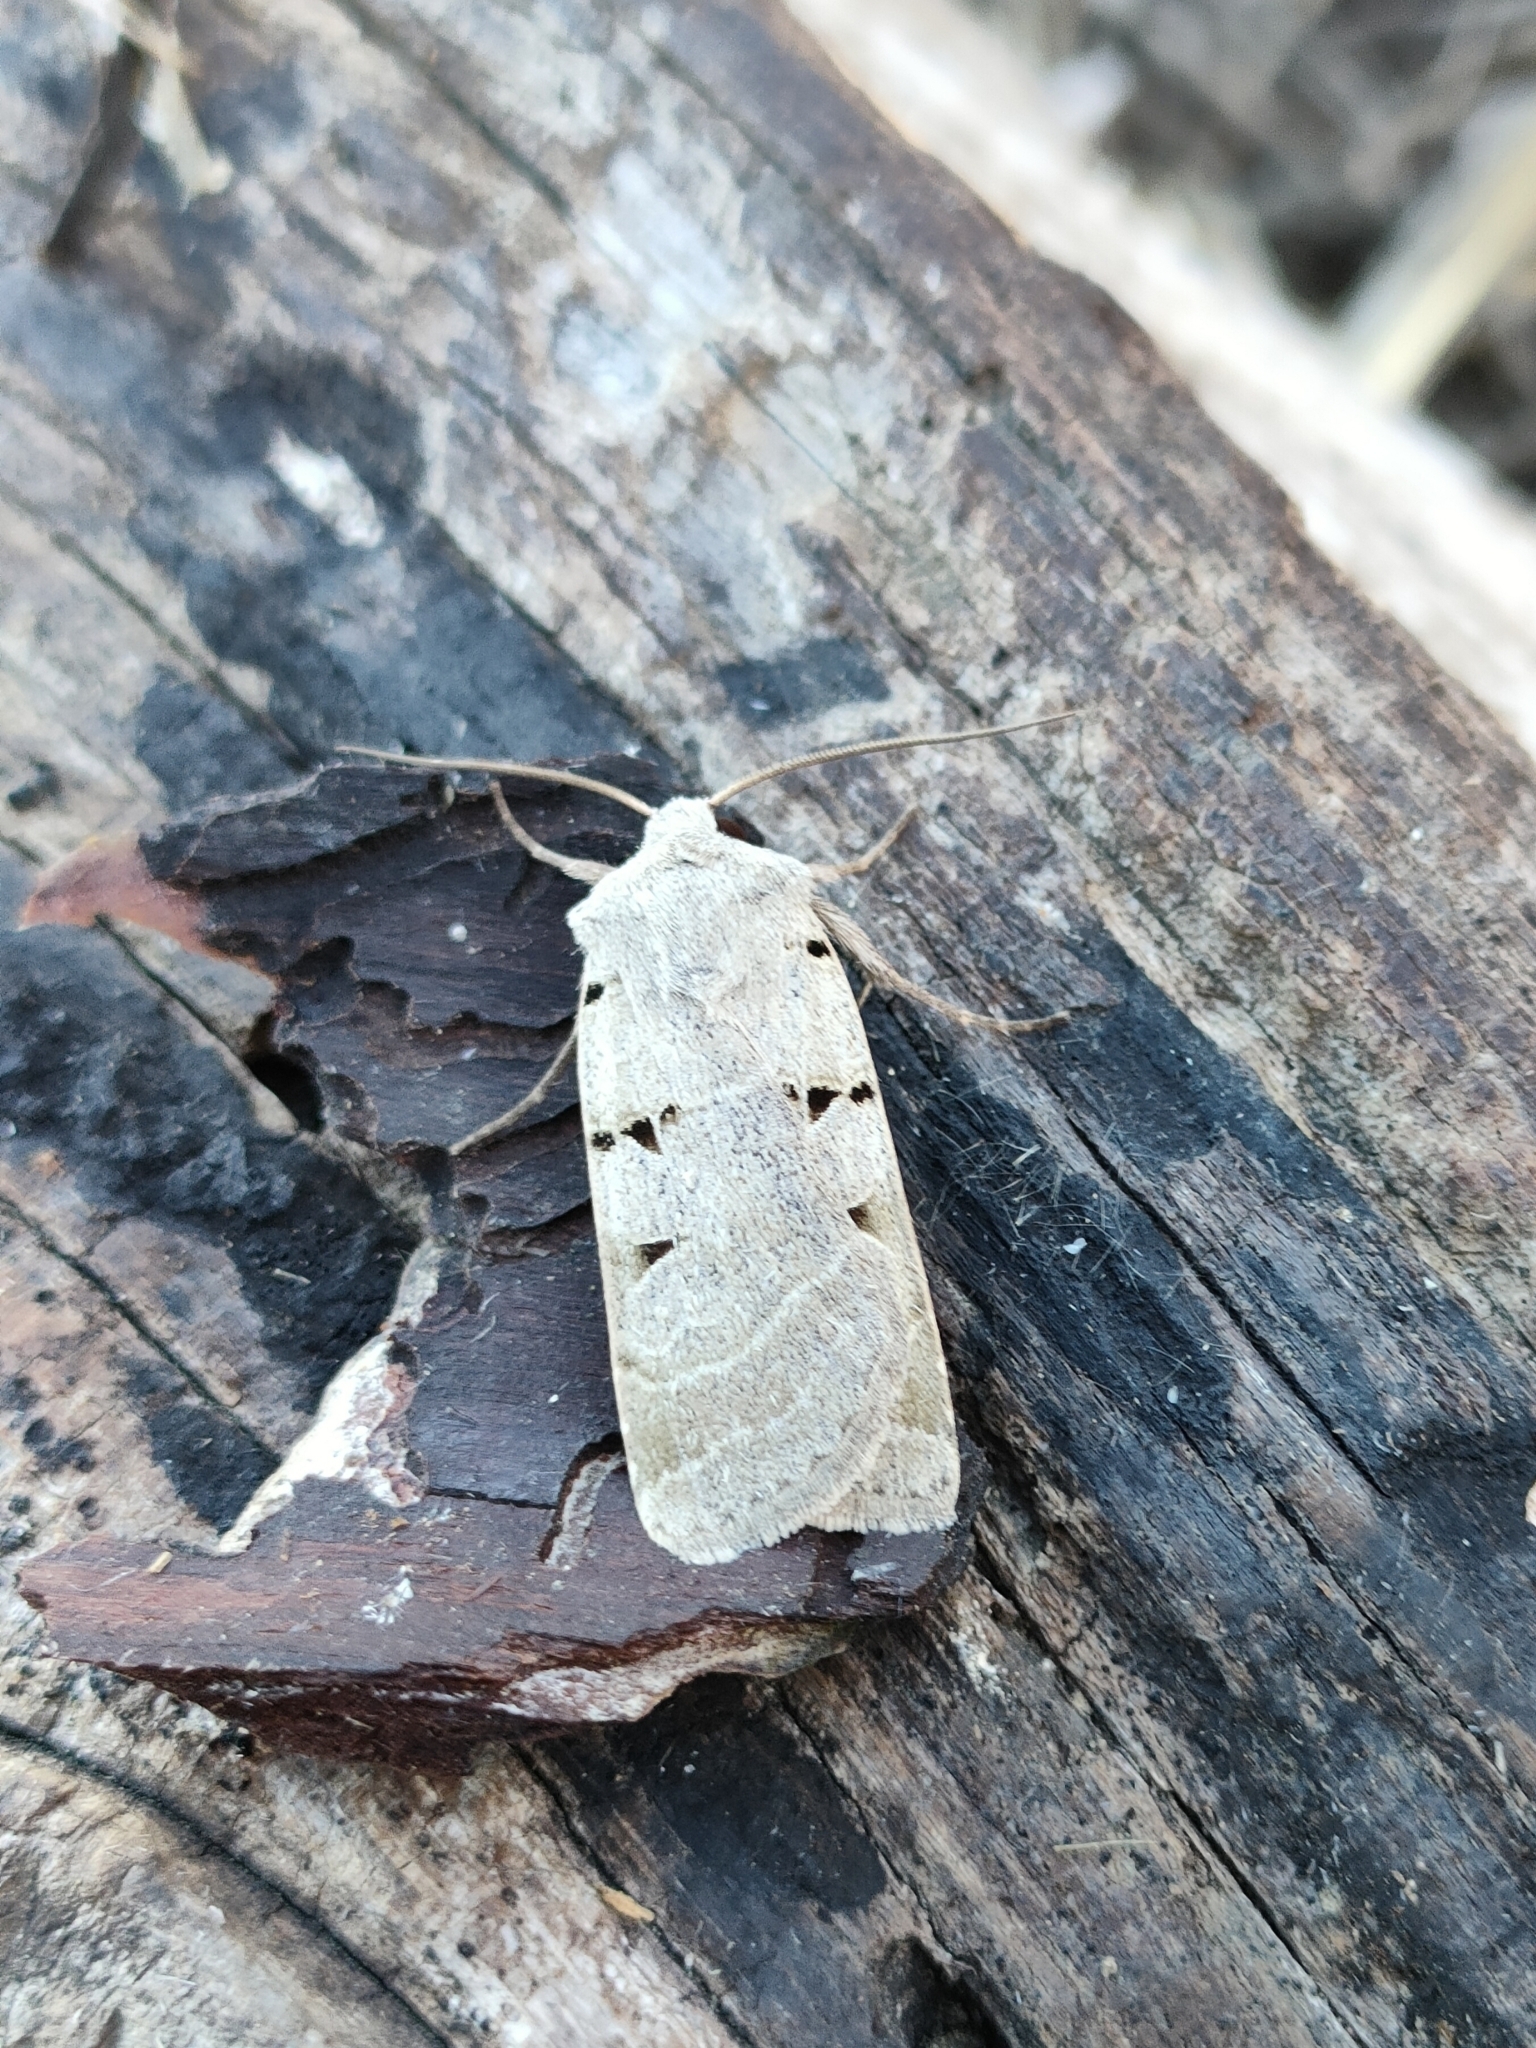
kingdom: Animalia
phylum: Arthropoda
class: Insecta
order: Lepidoptera
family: Noctuidae
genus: Eugnorisma
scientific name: Eugnorisma glareosa
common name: Autumnal rustic
